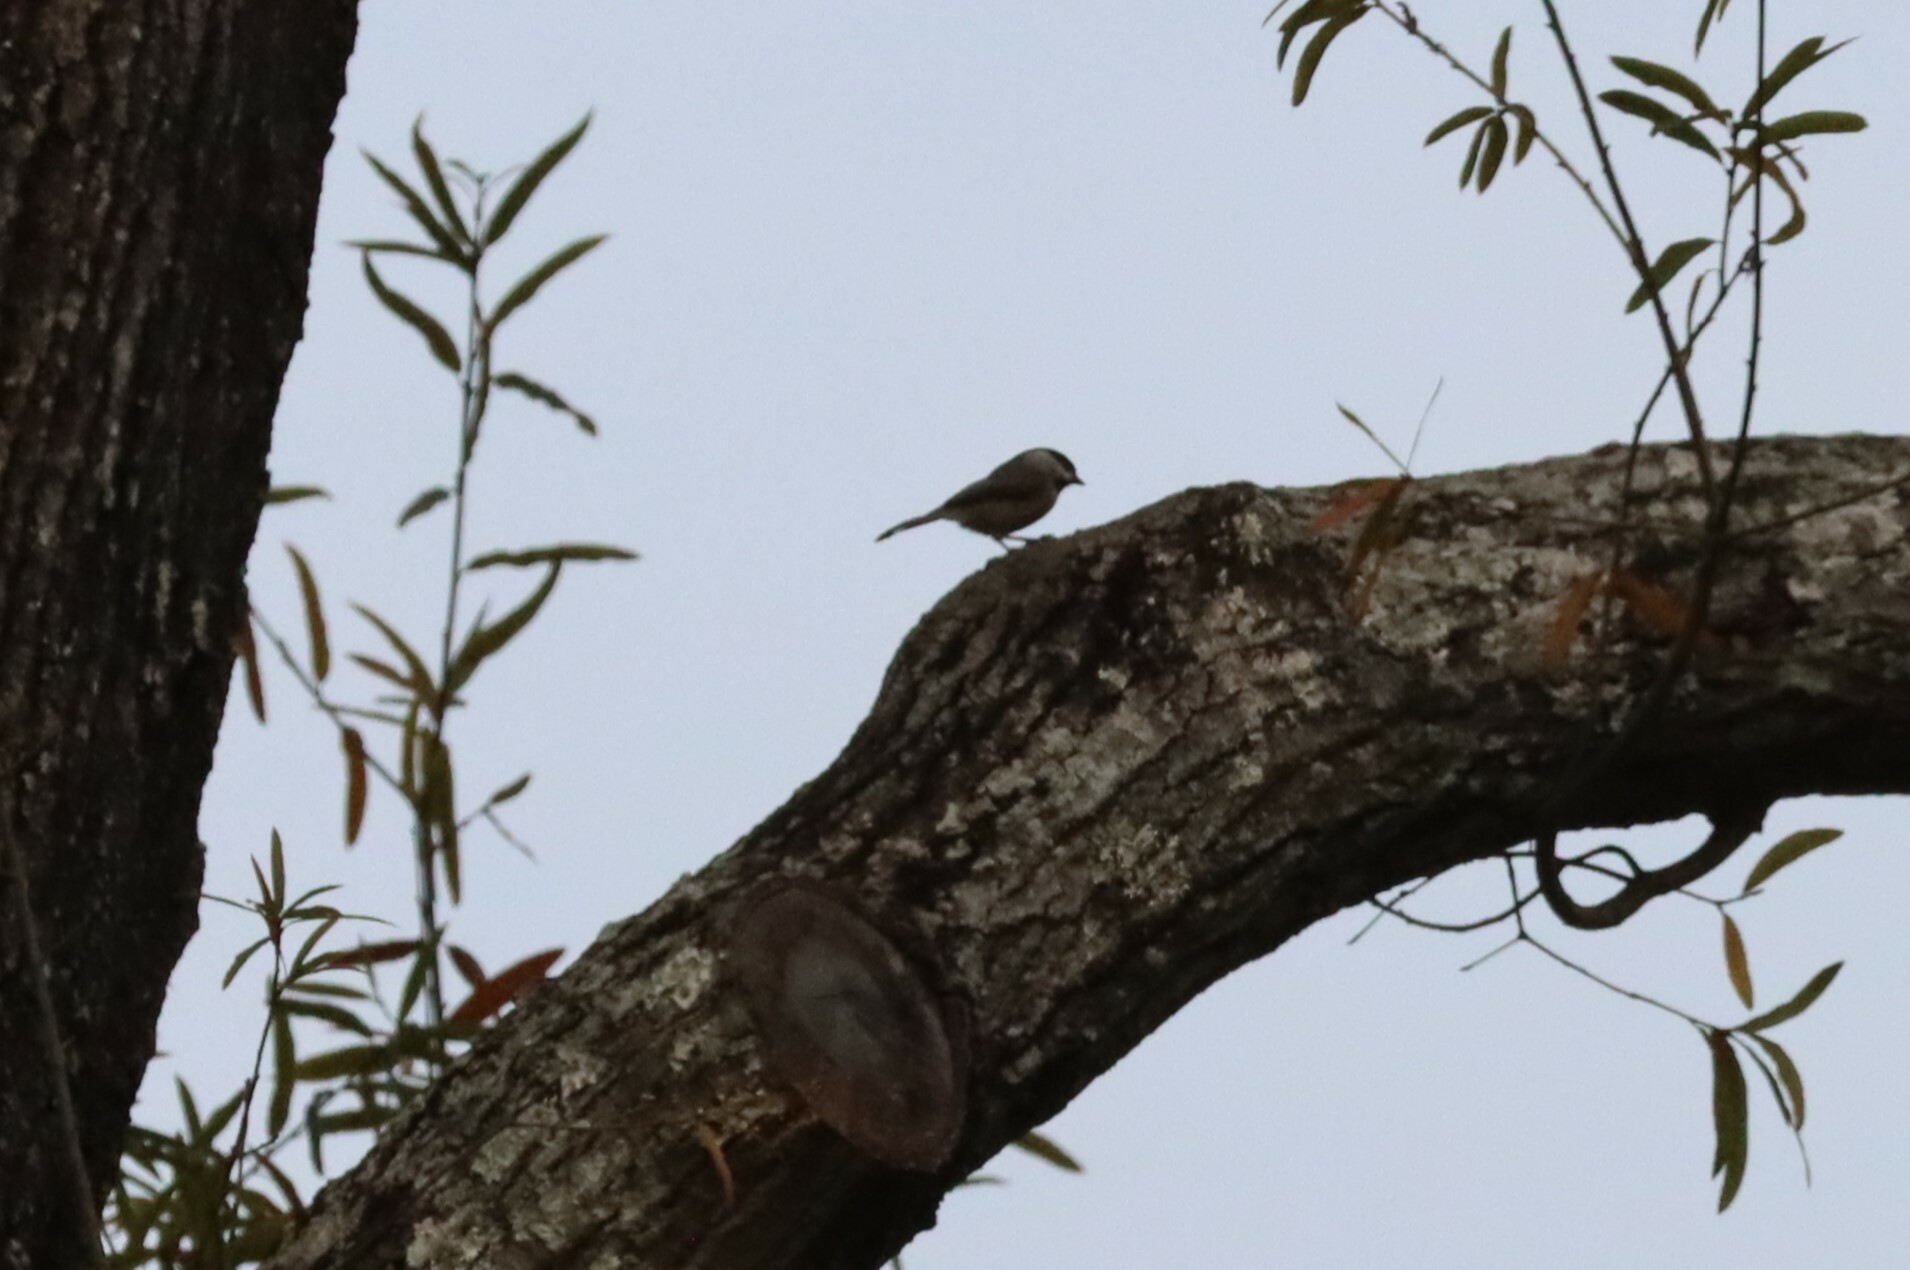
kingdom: Animalia
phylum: Chordata
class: Aves
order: Passeriformes
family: Paridae
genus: Poecile
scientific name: Poecile carolinensis
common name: Carolina chickadee
